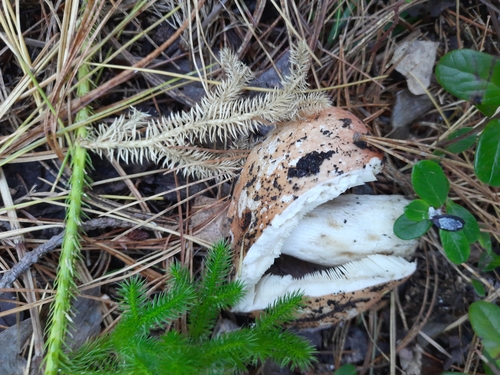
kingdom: Fungi
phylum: Basidiomycota
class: Agaricomycetes
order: Russulales
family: Russulaceae
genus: Russula
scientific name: Russula rosea
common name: Rosy brittlegill
